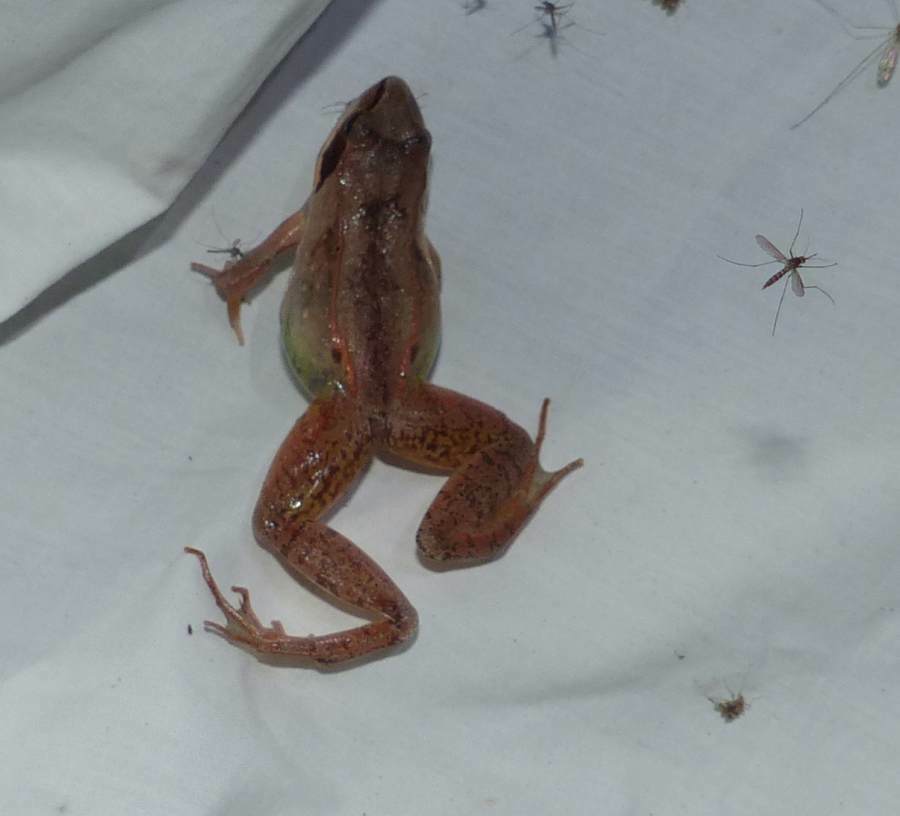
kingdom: Animalia
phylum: Chordata
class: Amphibia
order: Anura
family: Ranidae
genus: Lithobates
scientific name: Lithobates sylvaticus
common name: Wood frog
